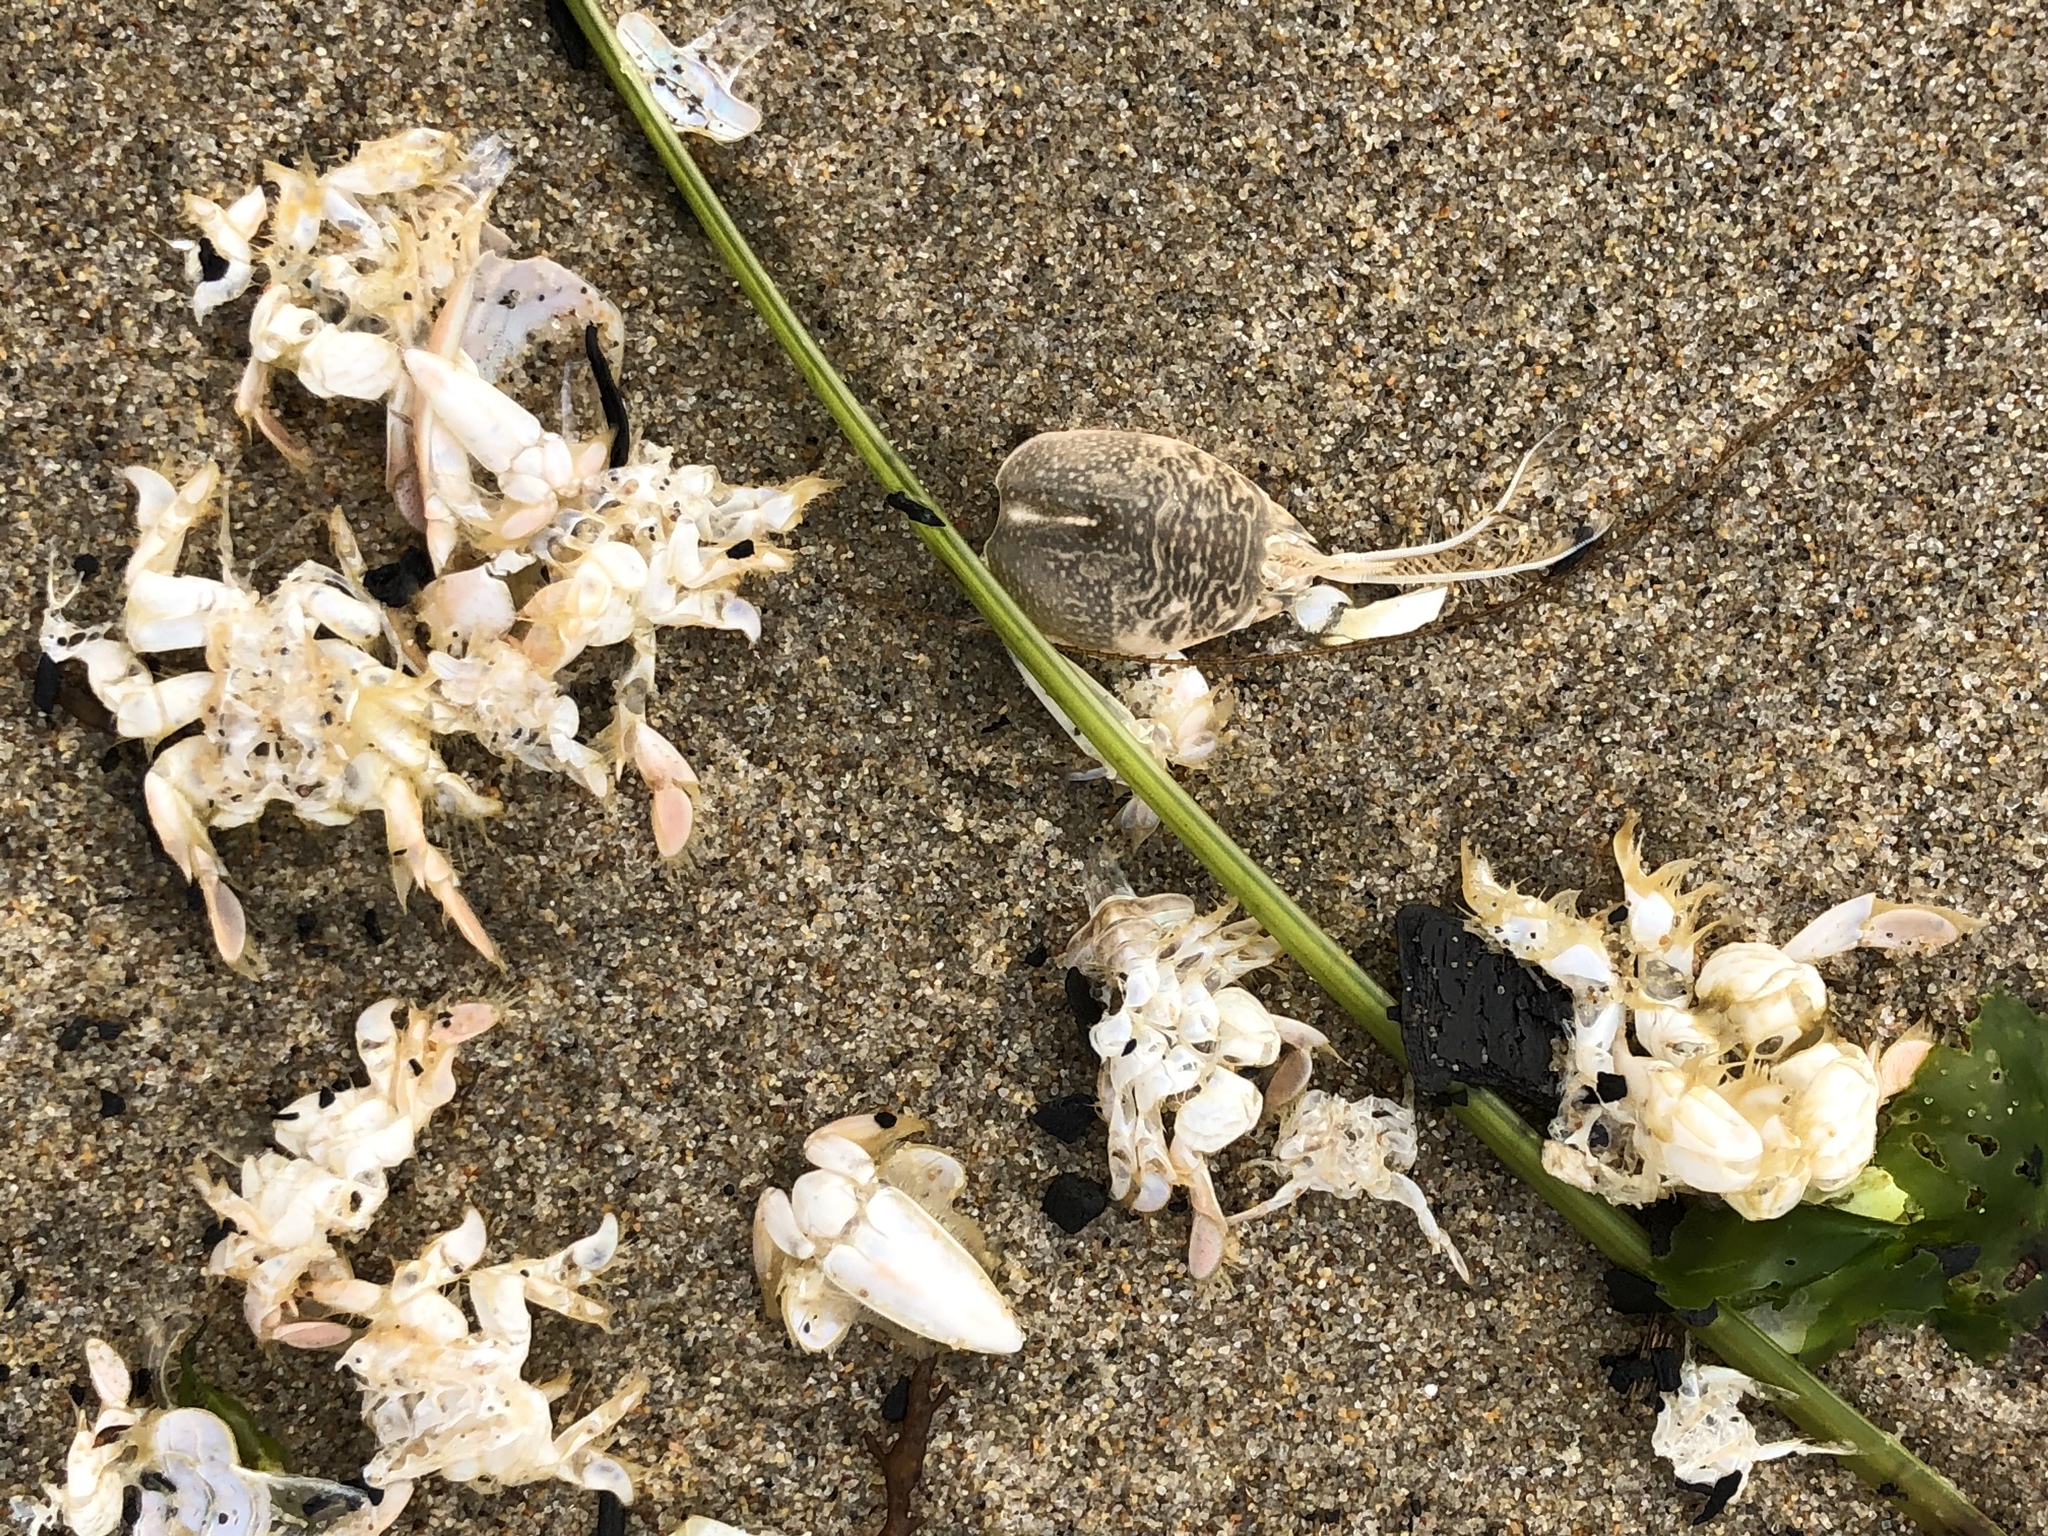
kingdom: Animalia
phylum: Arthropoda
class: Malacostraca
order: Decapoda
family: Hippidae
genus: Emerita
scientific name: Emerita analoga
